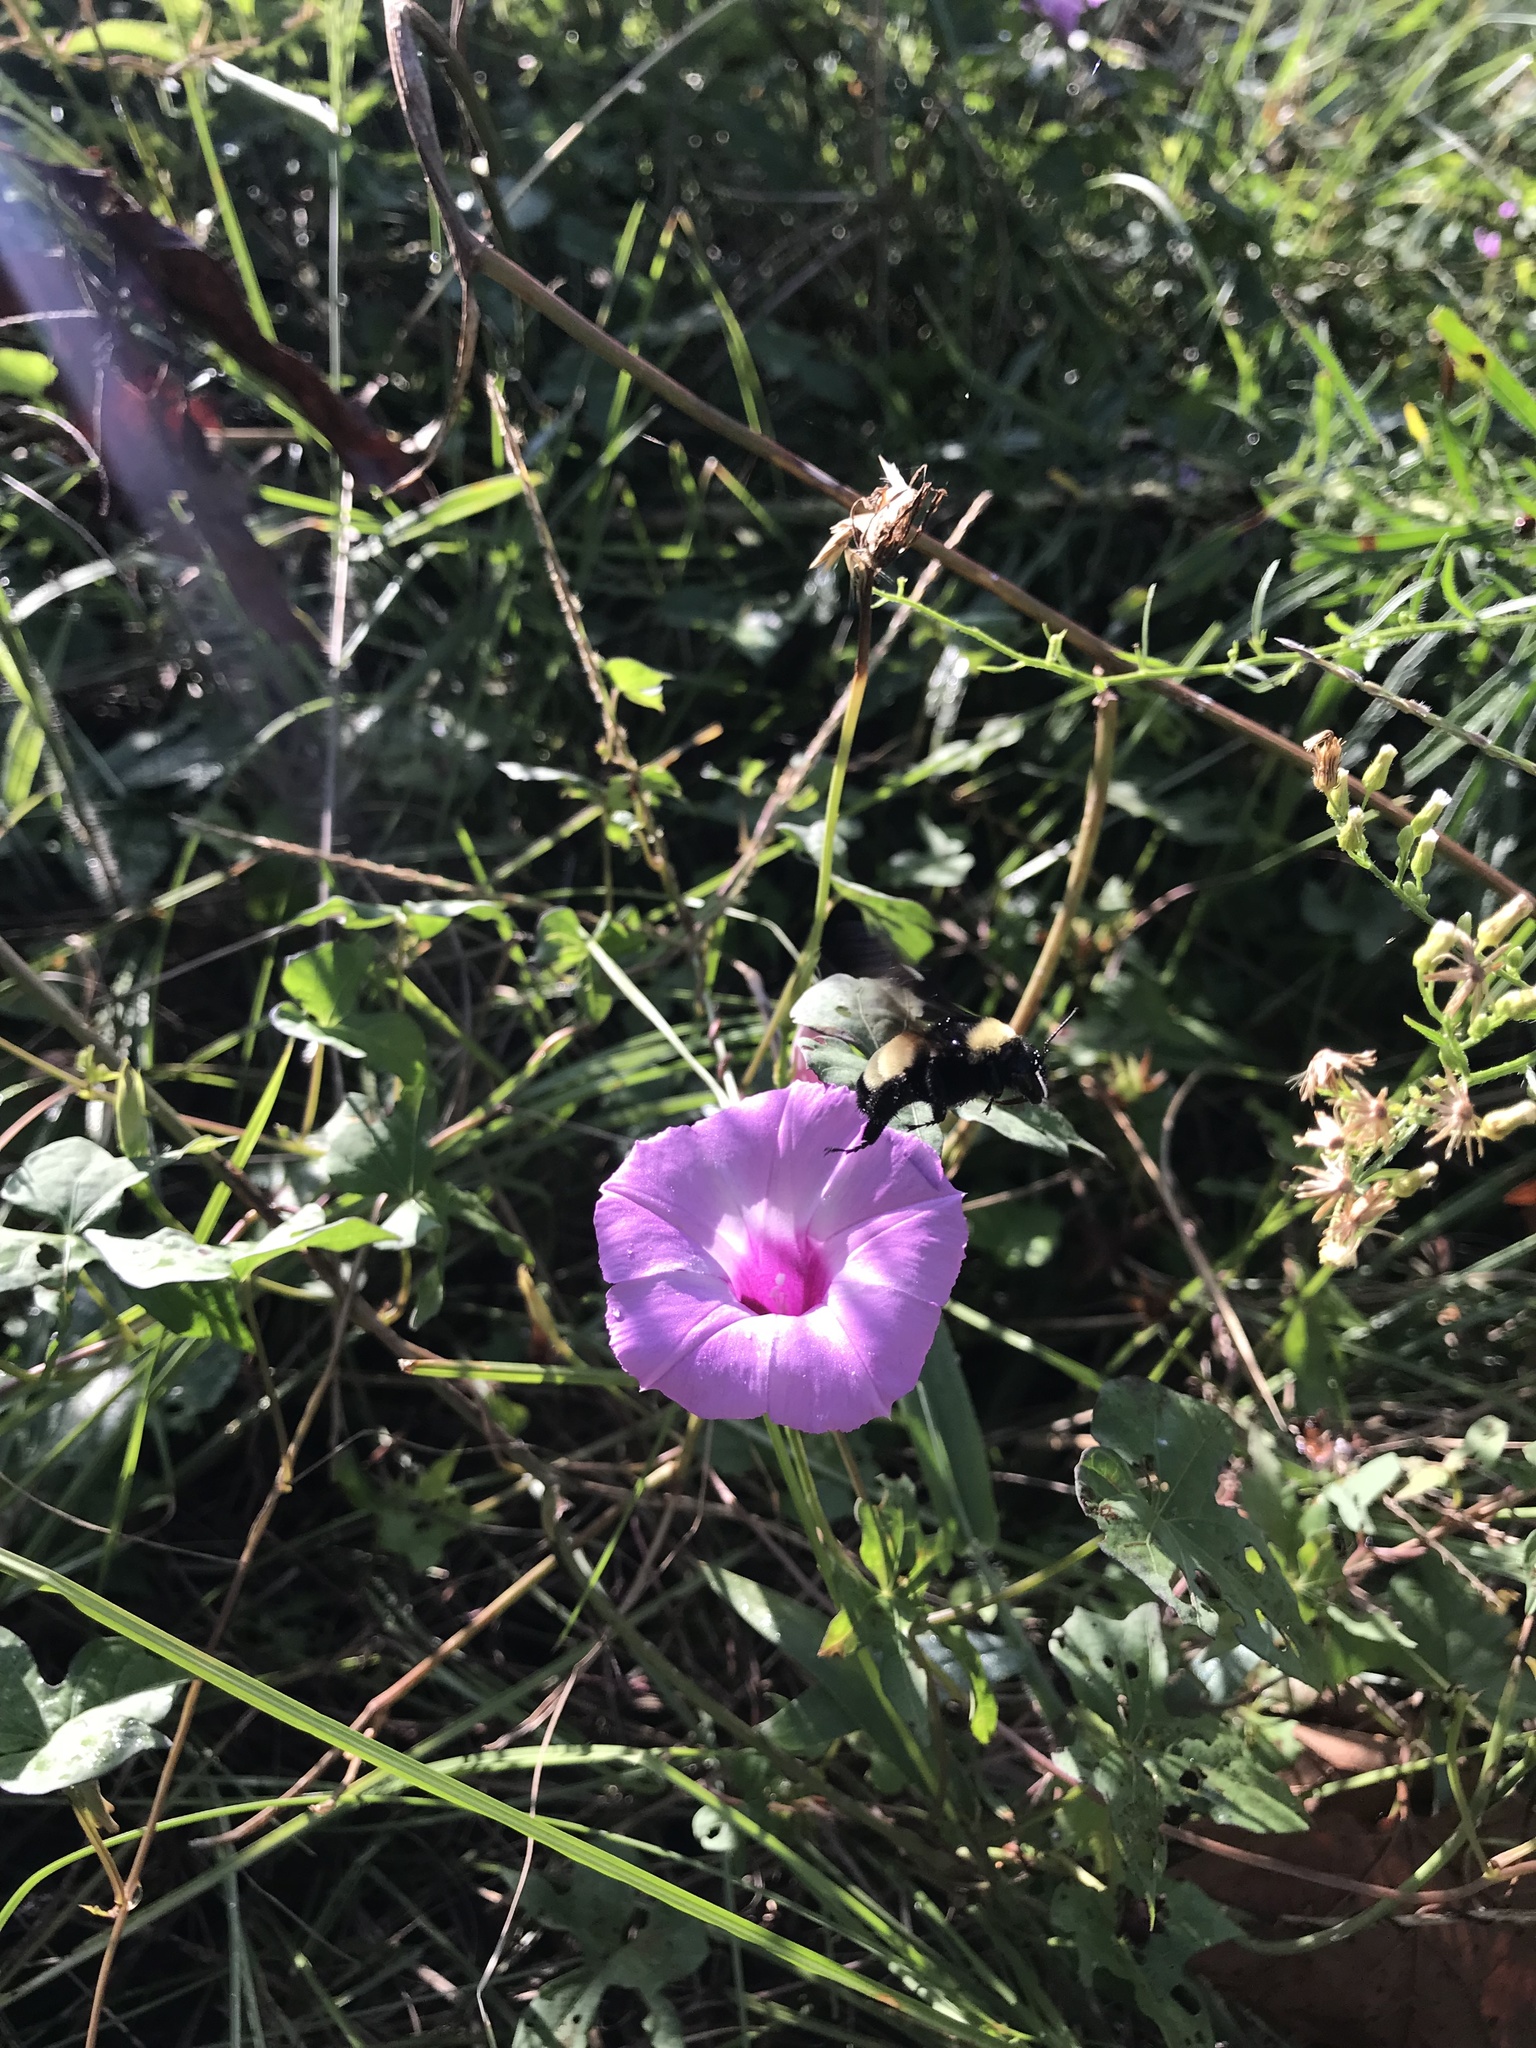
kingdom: Animalia
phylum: Arthropoda
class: Insecta
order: Hymenoptera
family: Apidae
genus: Bombus
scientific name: Bombus pensylvanicus
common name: Bumble bee
